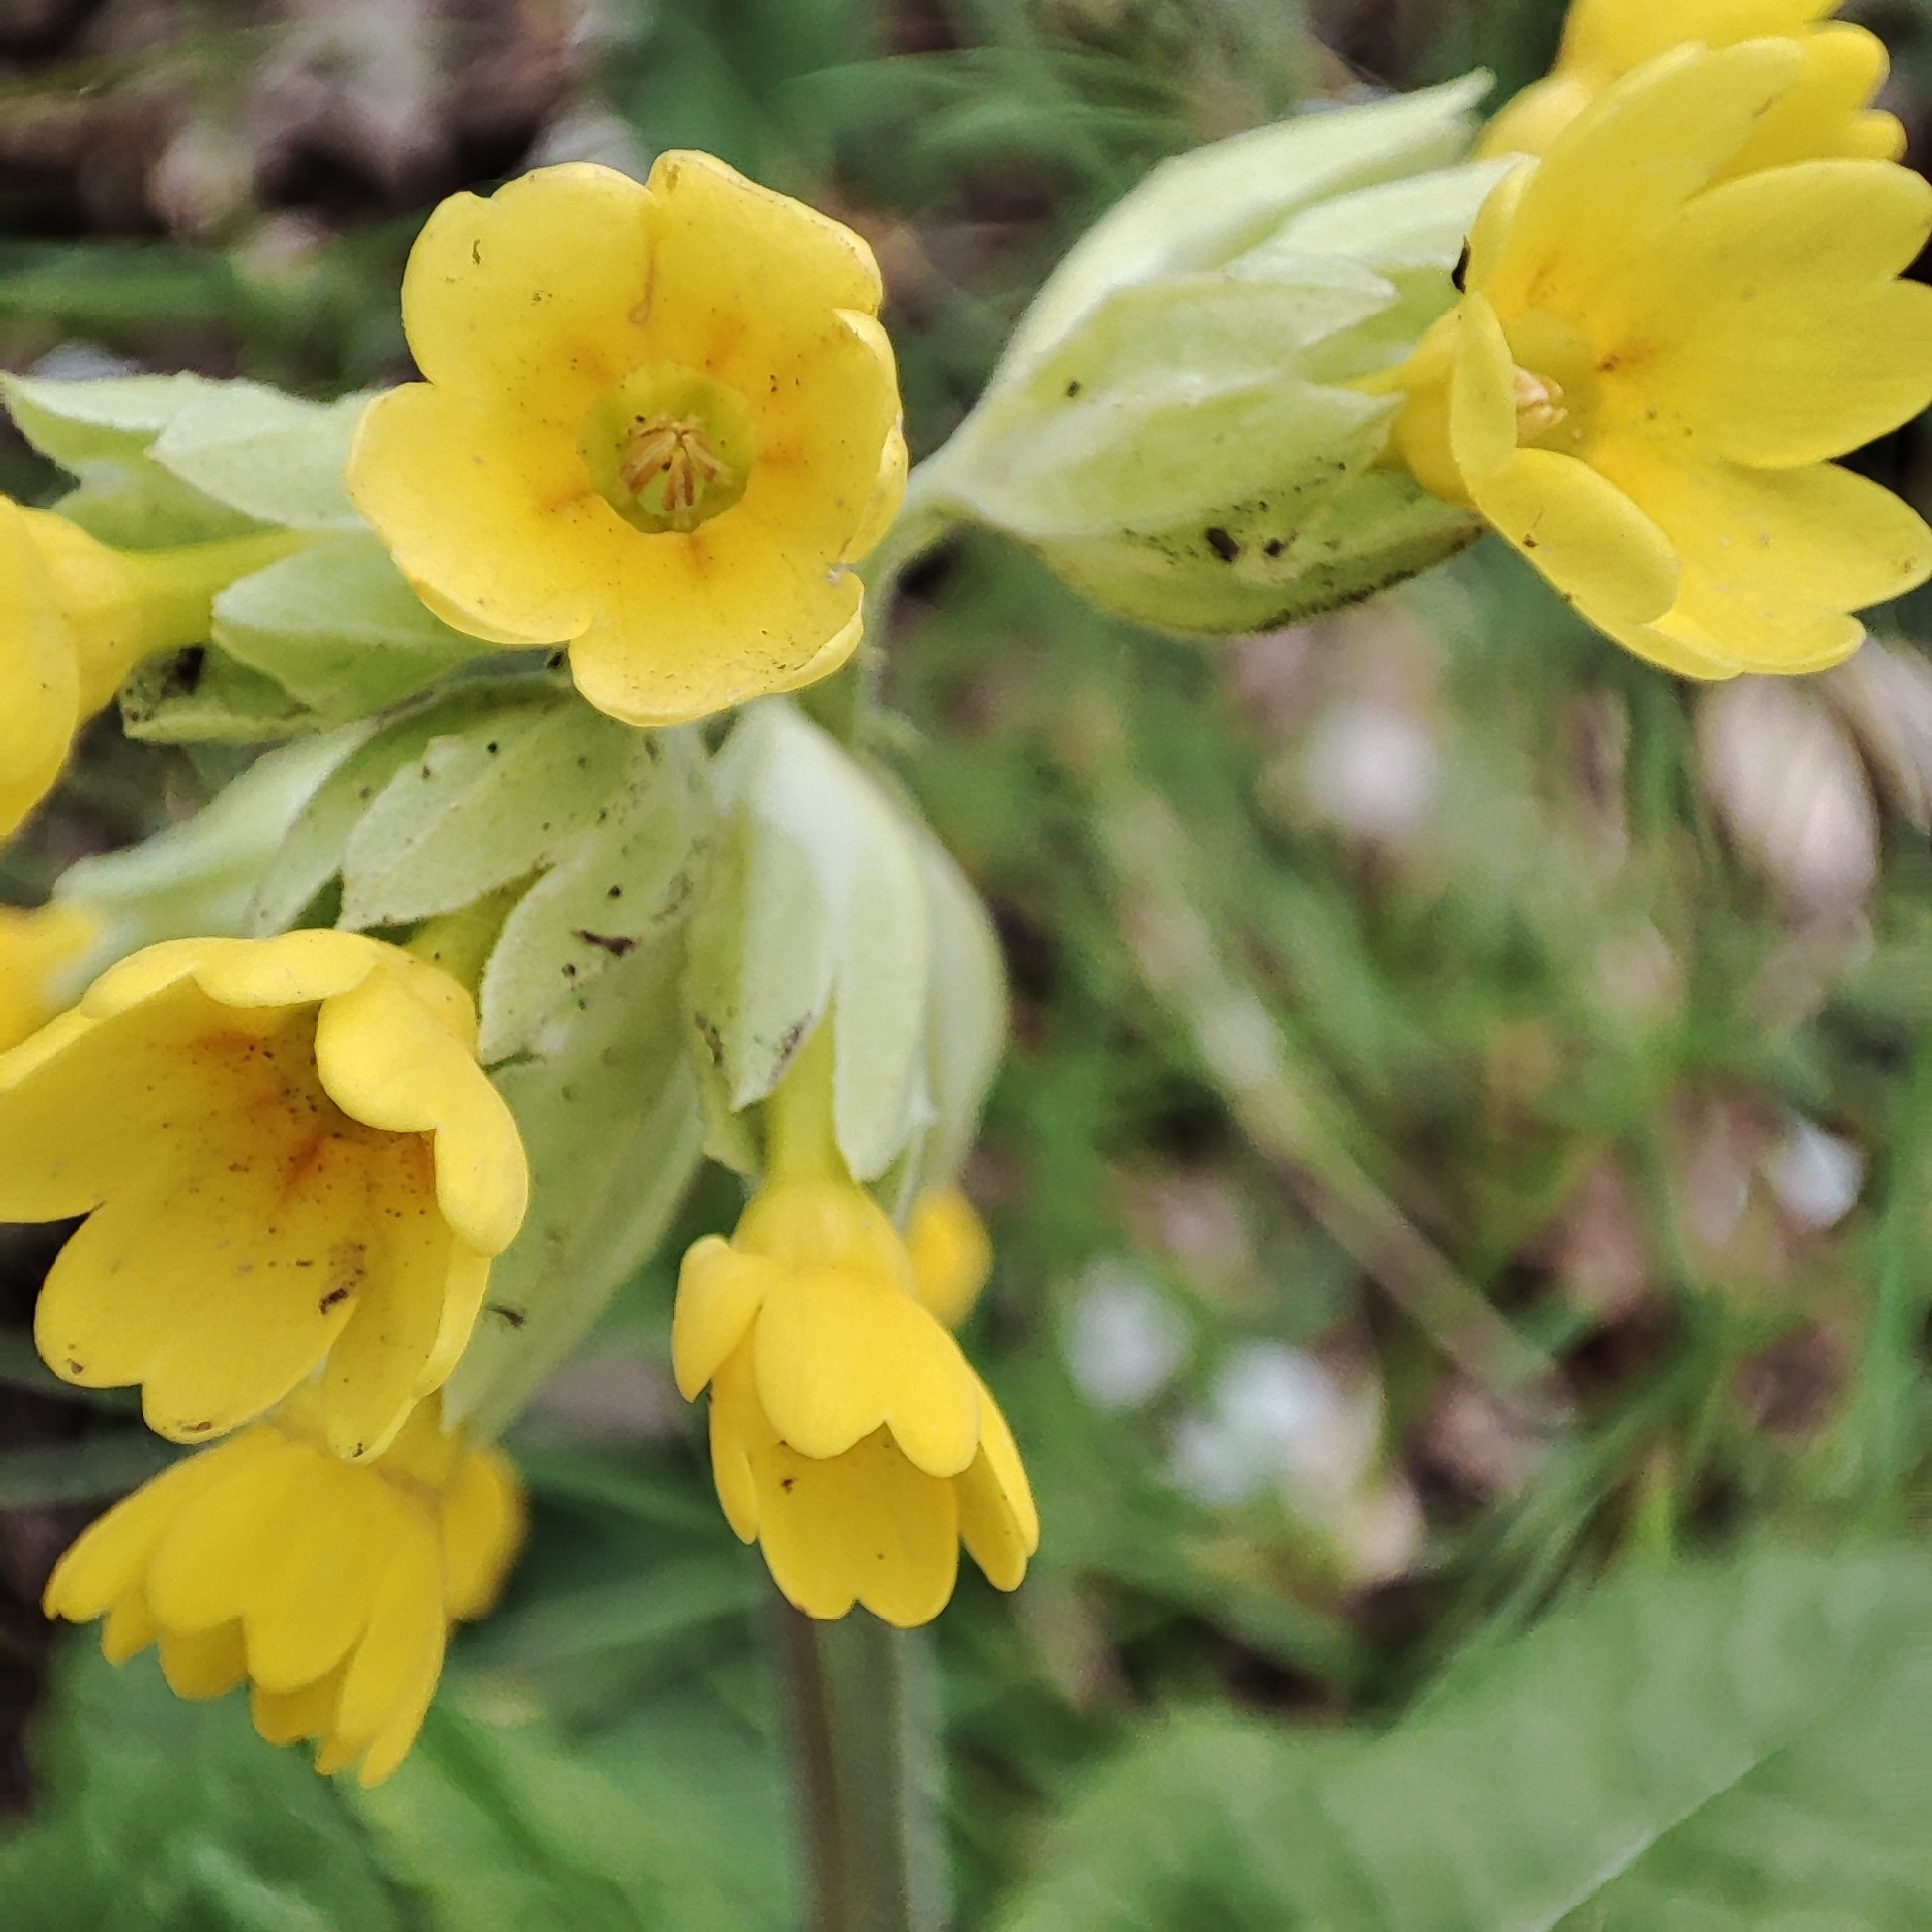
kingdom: Plantae
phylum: Tracheophyta
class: Magnoliopsida
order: Ericales
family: Primulaceae
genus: Primula
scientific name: Primula veris
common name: Cowslip
